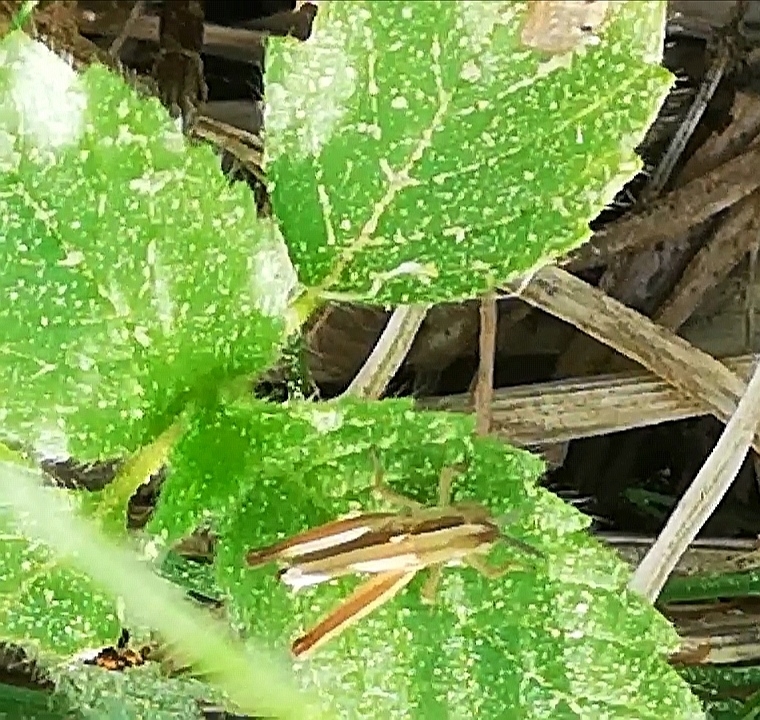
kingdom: Animalia
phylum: Arthropoda
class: Insecta
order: Orthoptera
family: Acrididae
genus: Euthystira
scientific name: Euthystira brachyptera
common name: Small gold grasshopper
